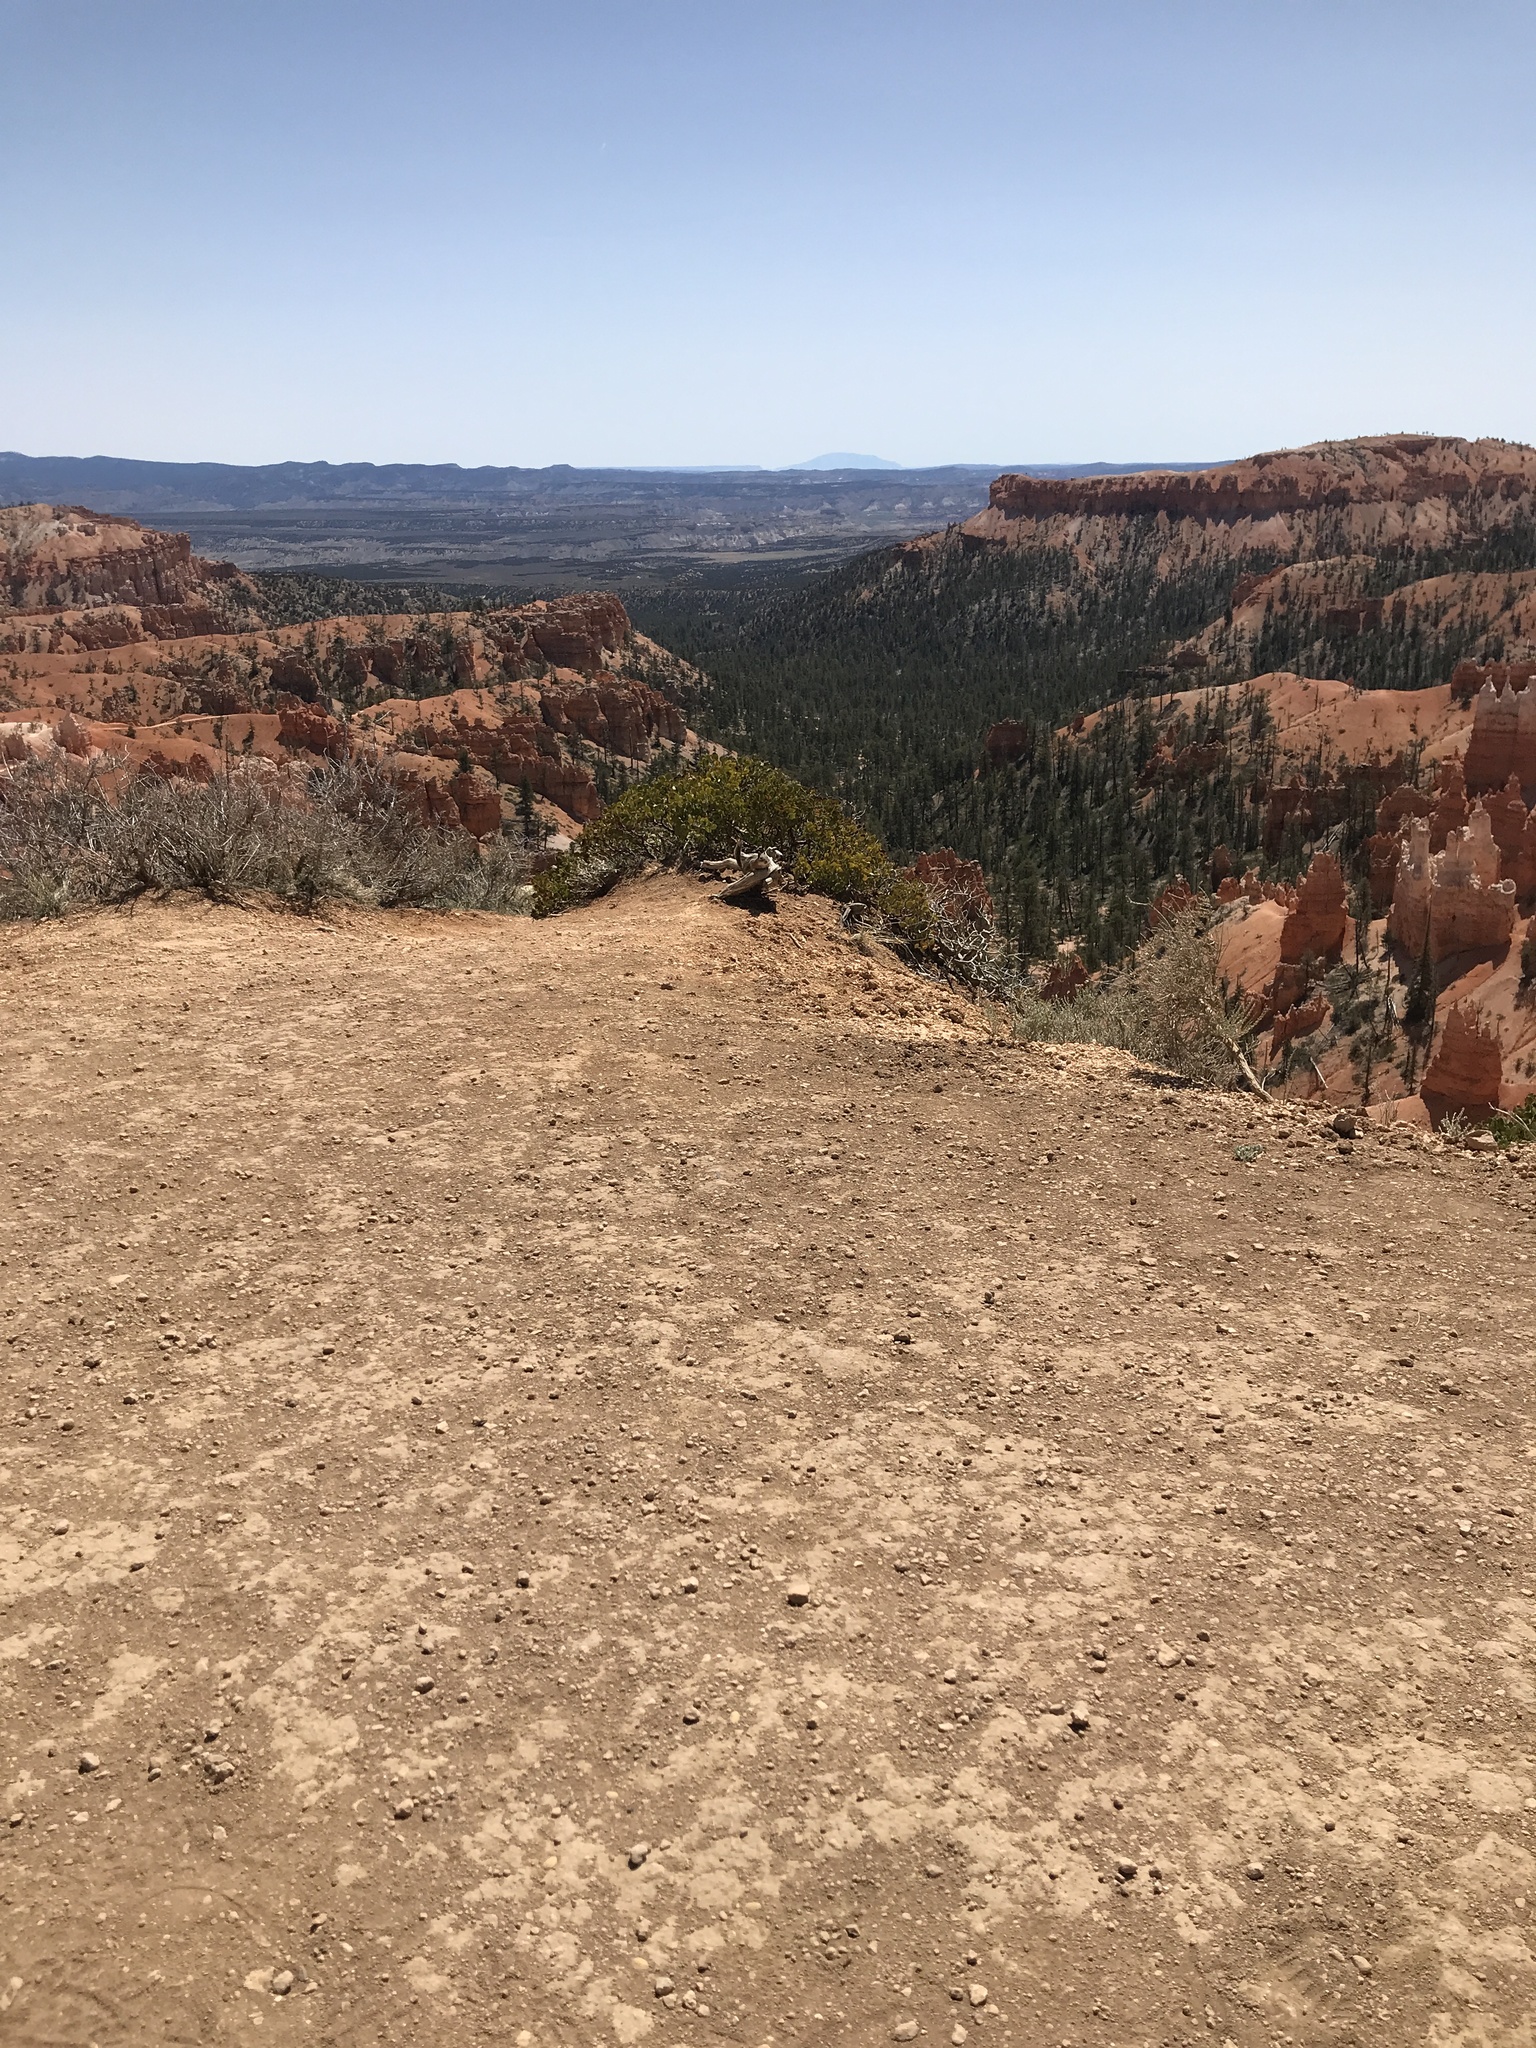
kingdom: Animalia
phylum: Chordata
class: Mammalia
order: Rodentia
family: Sciuridae
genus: Callospermophilus
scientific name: Callospermophilus lateralis
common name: Golden-mantled ground squirrel
